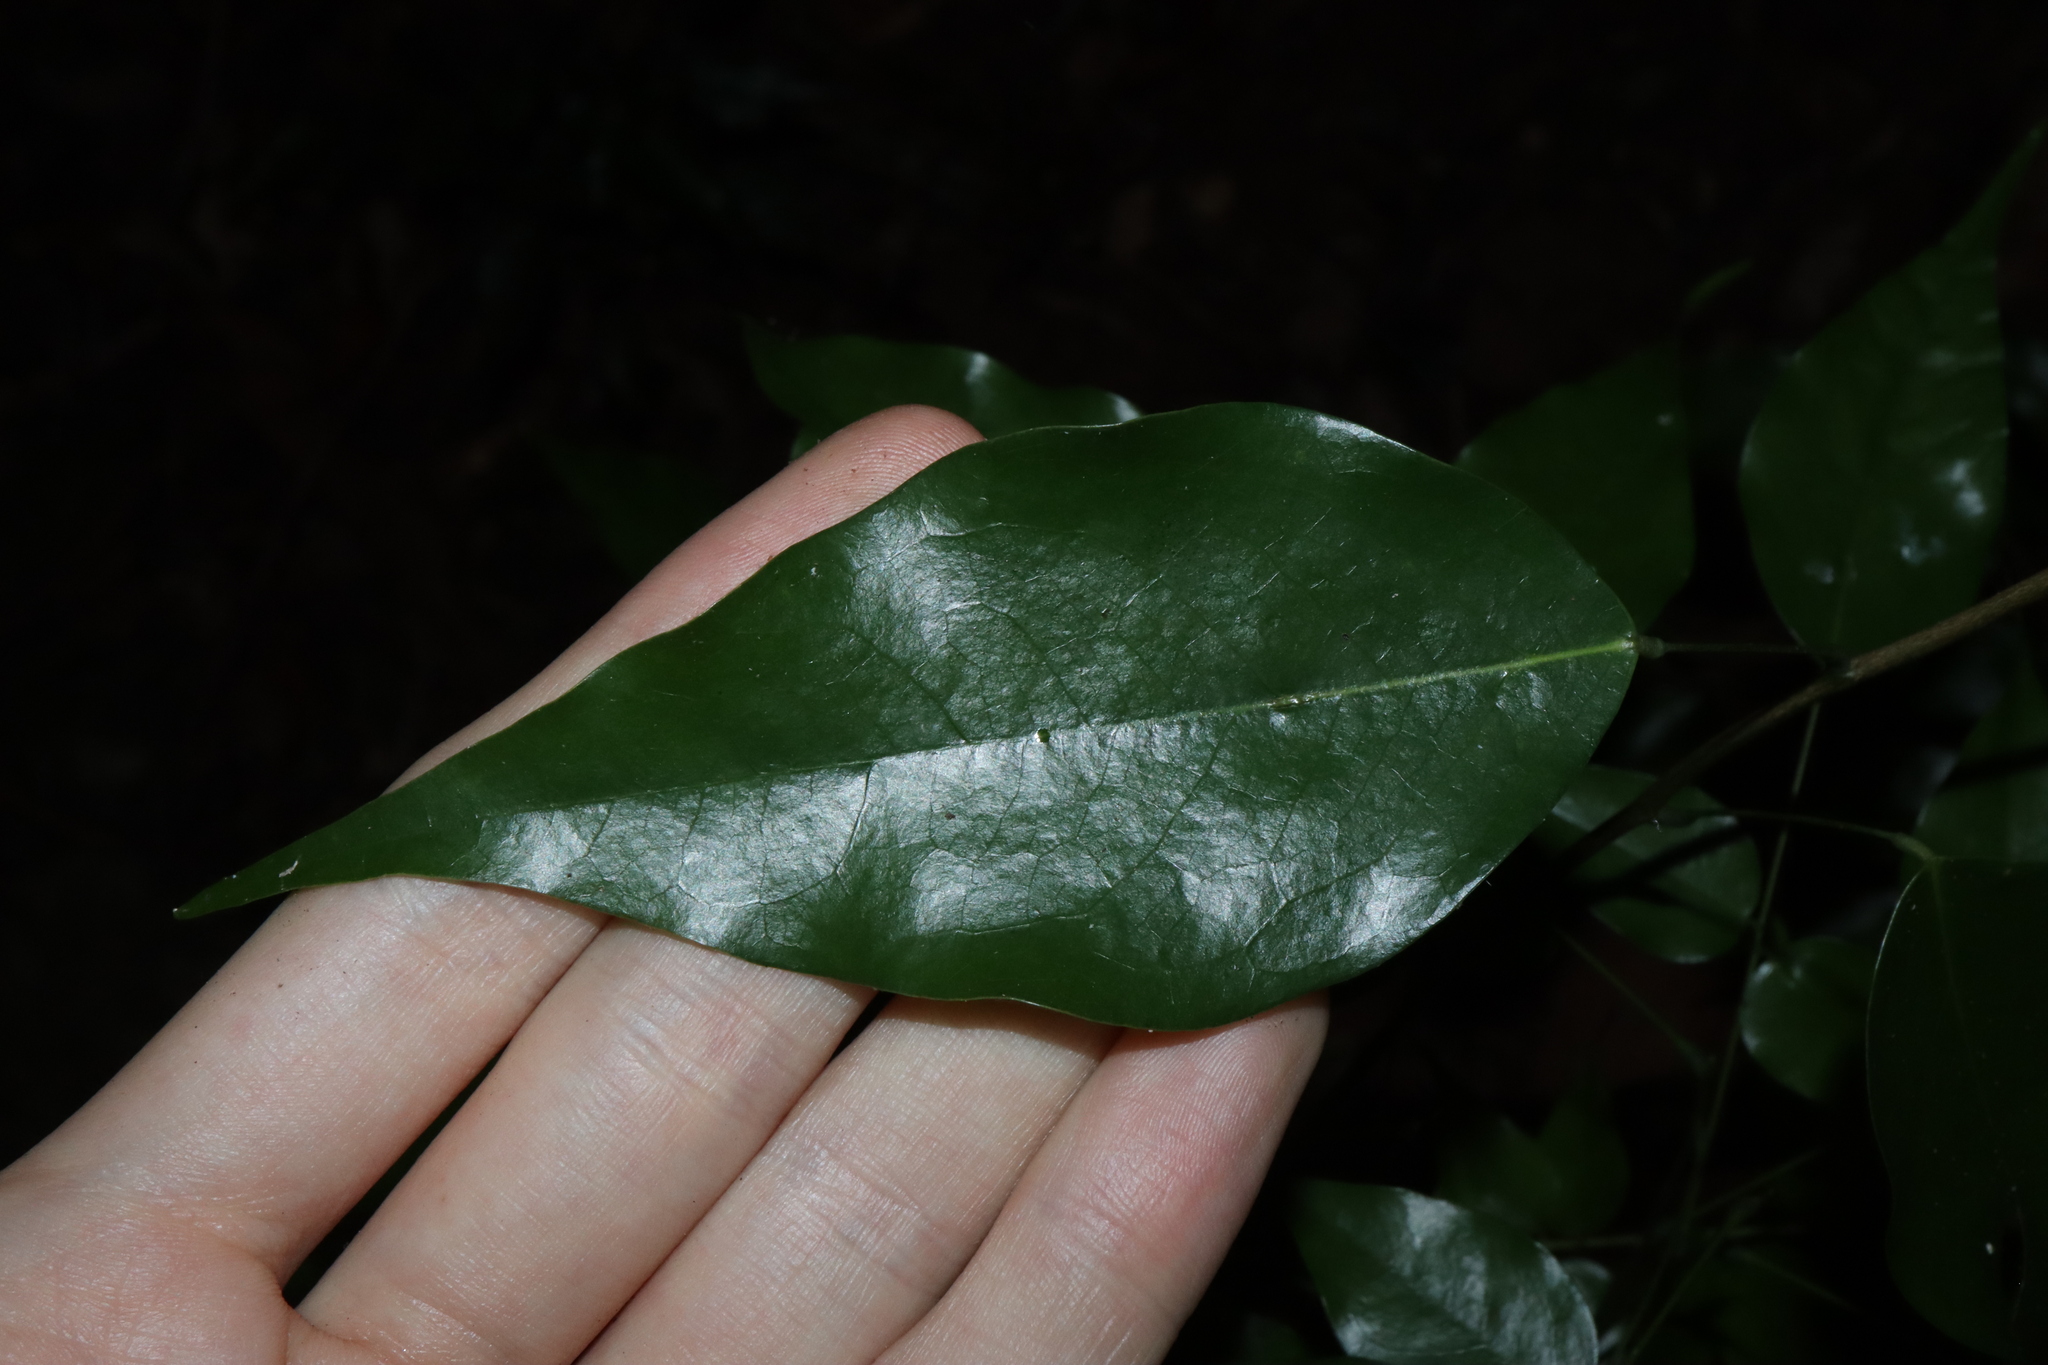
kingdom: Plantae
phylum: Tracheophyta
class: Magnoliopsida
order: Oxalidales
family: Connaraceae
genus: Rourea
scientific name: Rourea brachyandra
